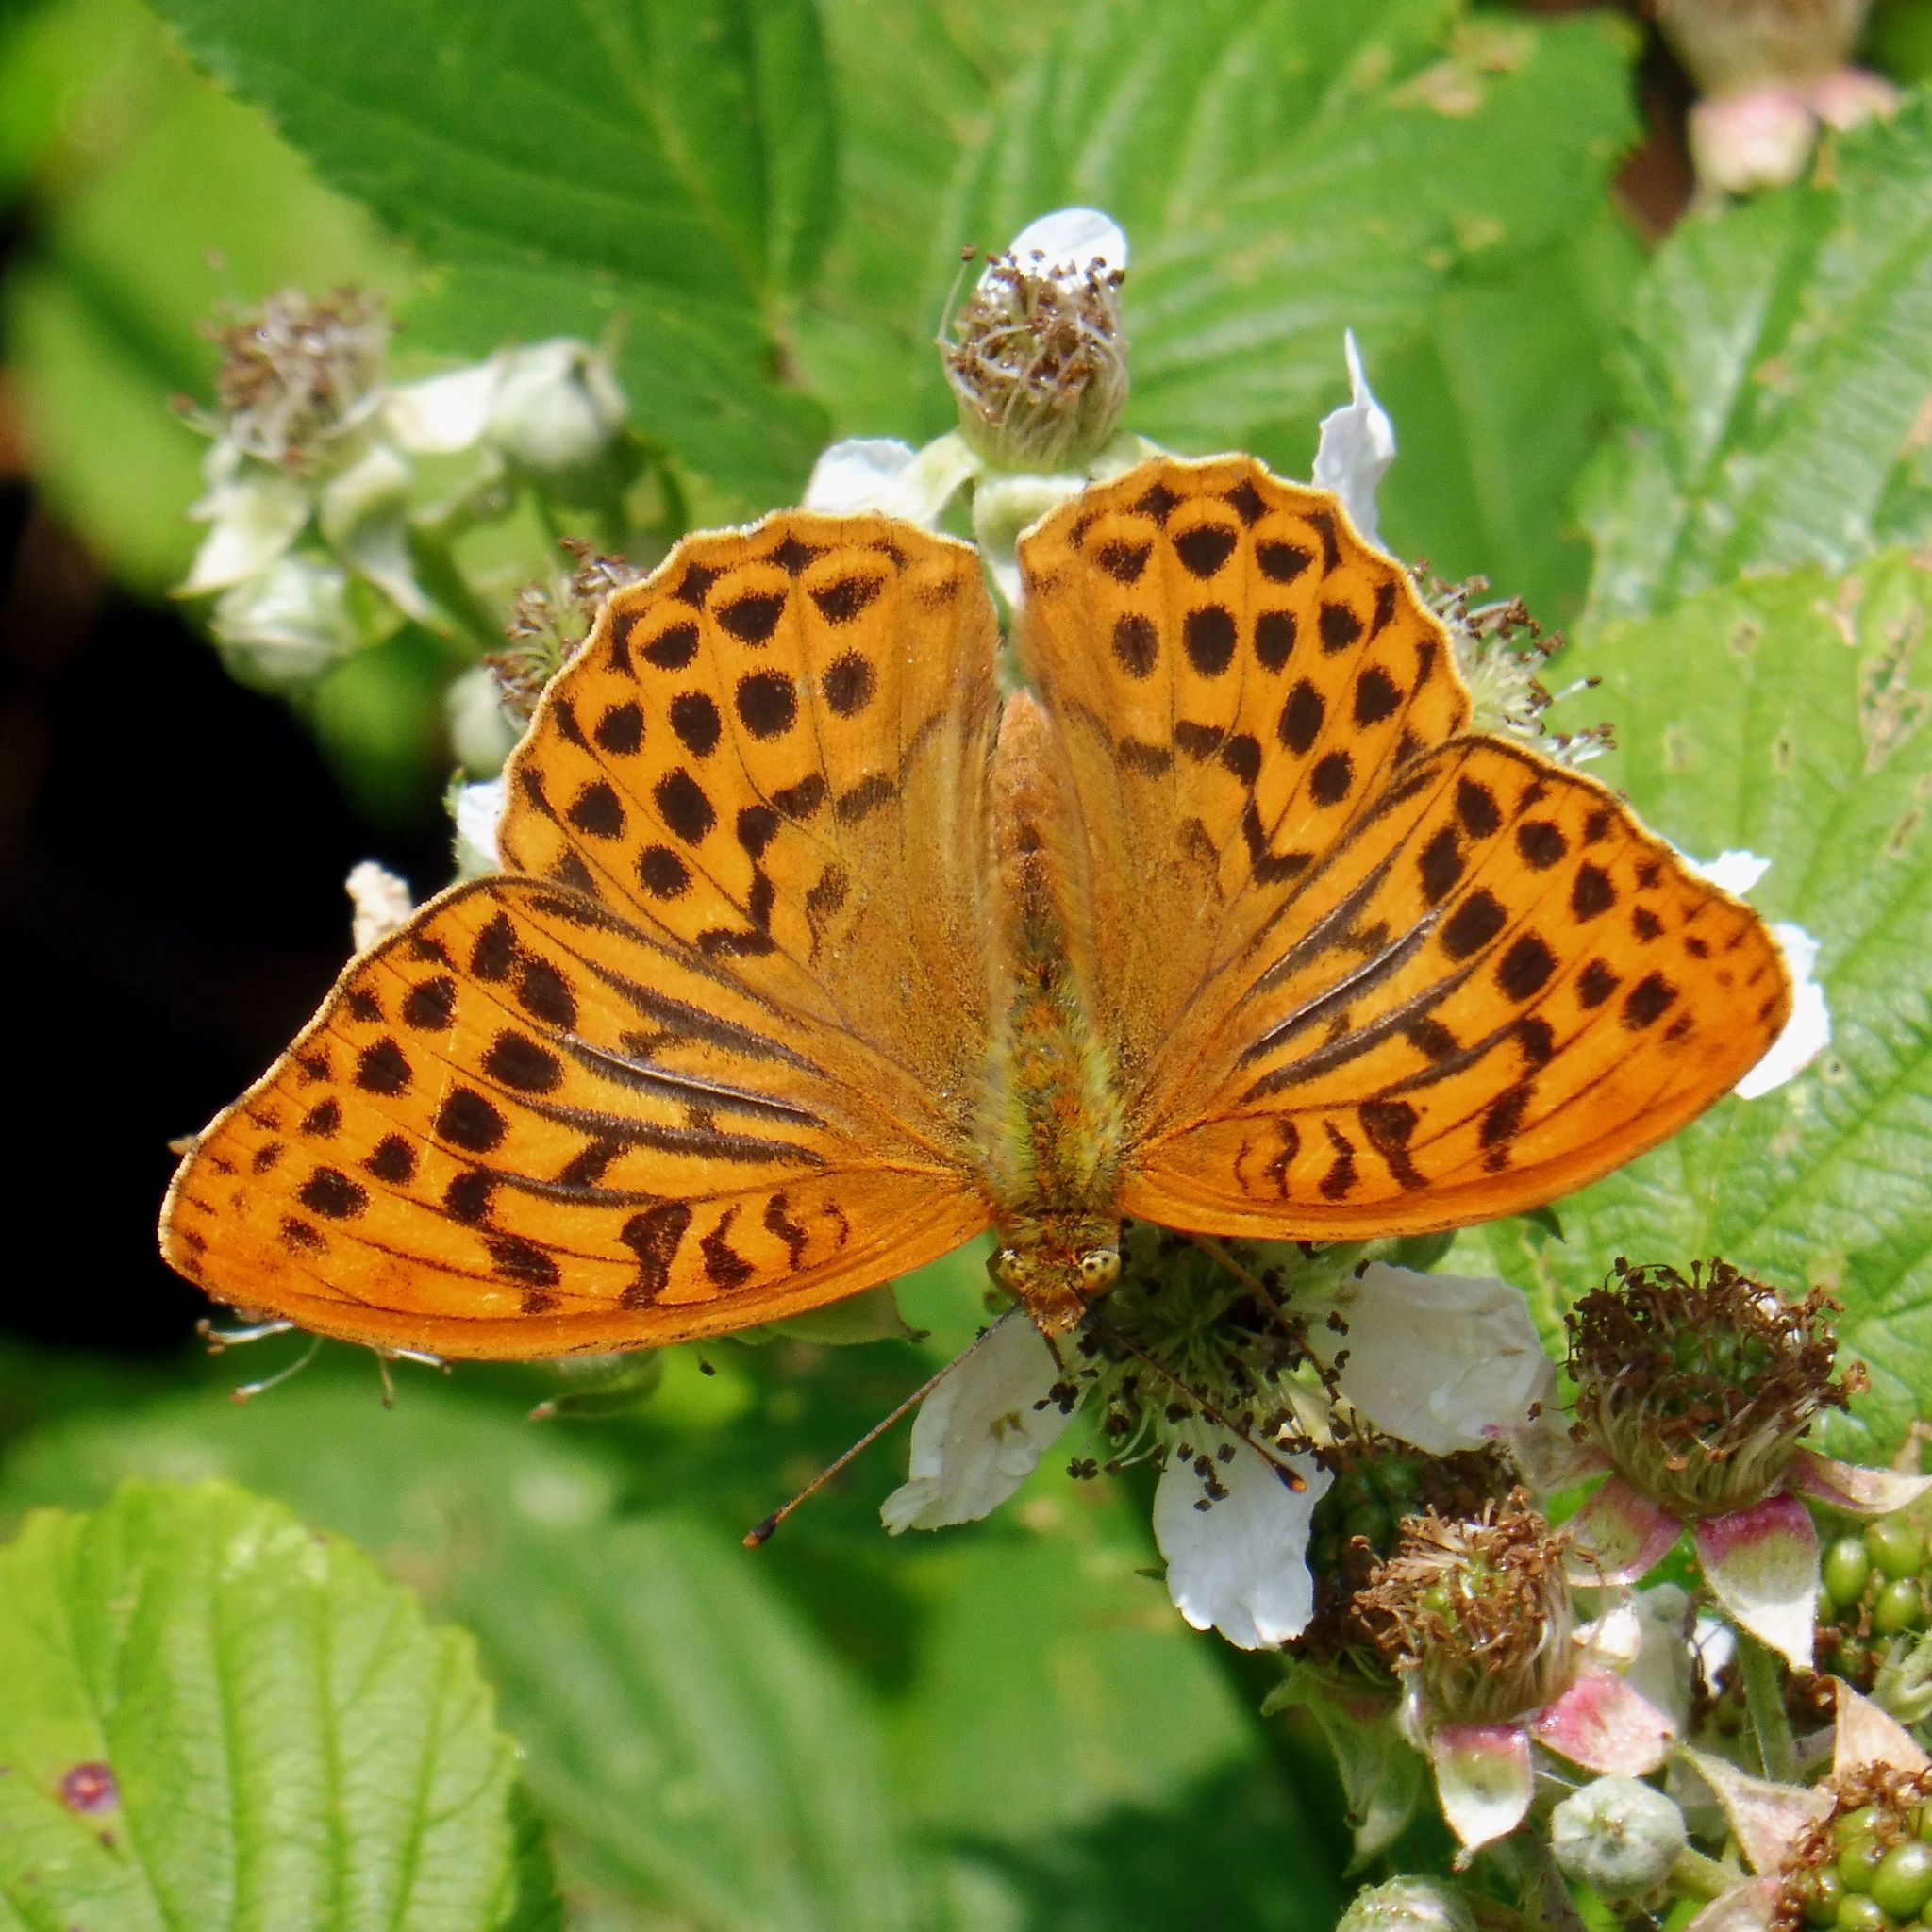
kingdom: Animalia
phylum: Arthropoda
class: Insecta
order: Lepidoptera
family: Nymphalidae
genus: Argynnis
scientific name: Argynnis paphia
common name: Silver-washed fritillary
